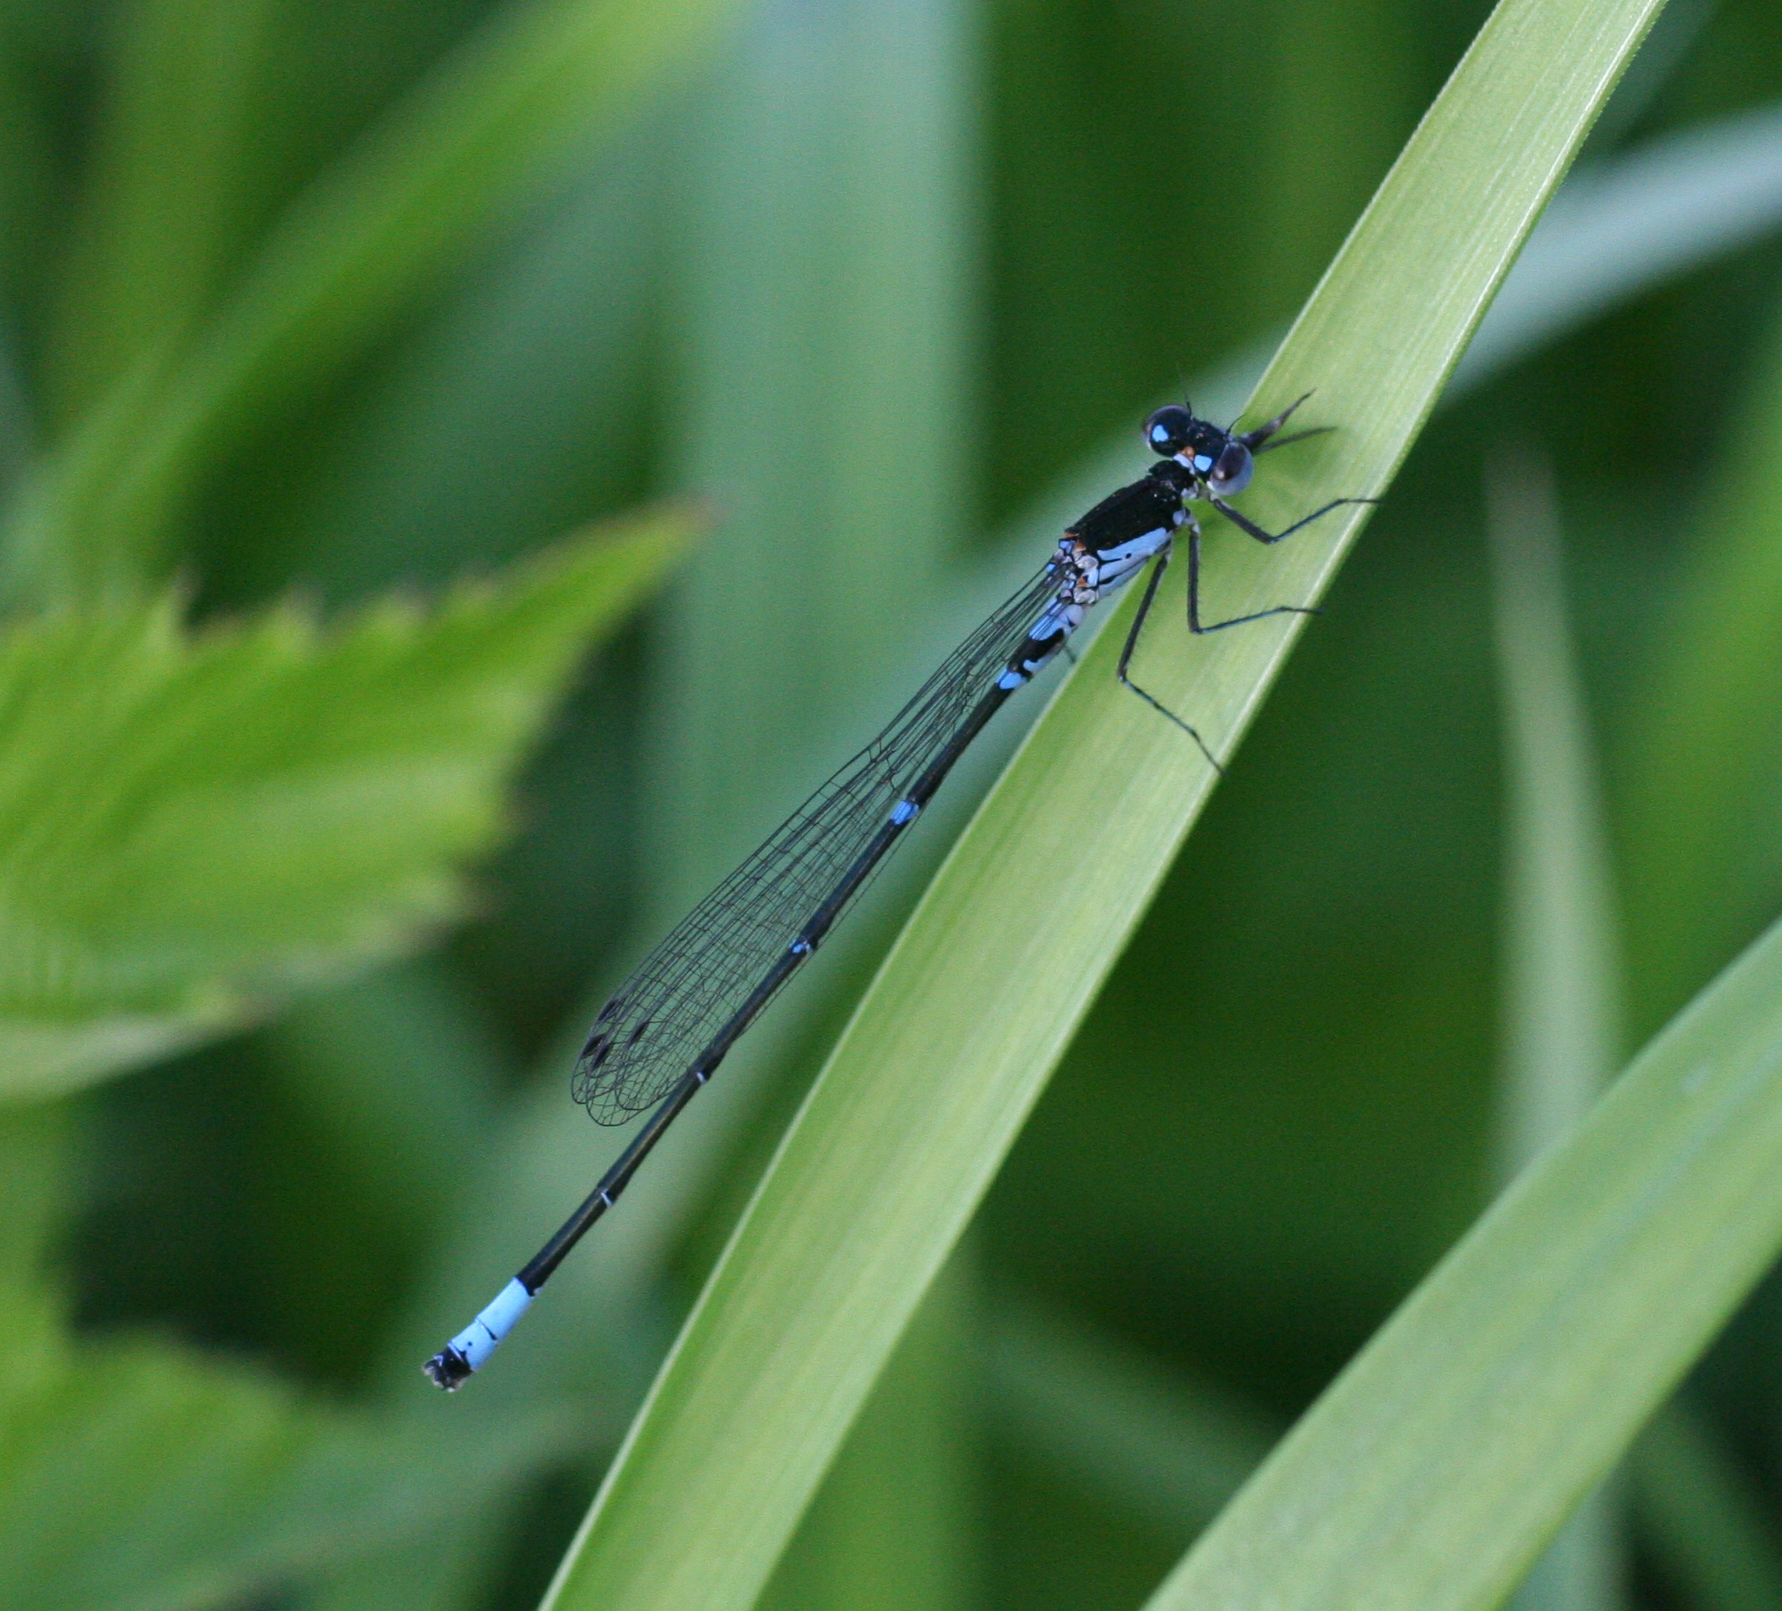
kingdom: Animalia
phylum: Arthropoda
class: Insecta
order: Odonata
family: Coenagrionidae
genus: Coenagrion
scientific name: Coenagrion pulchellum
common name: Variable bluet
